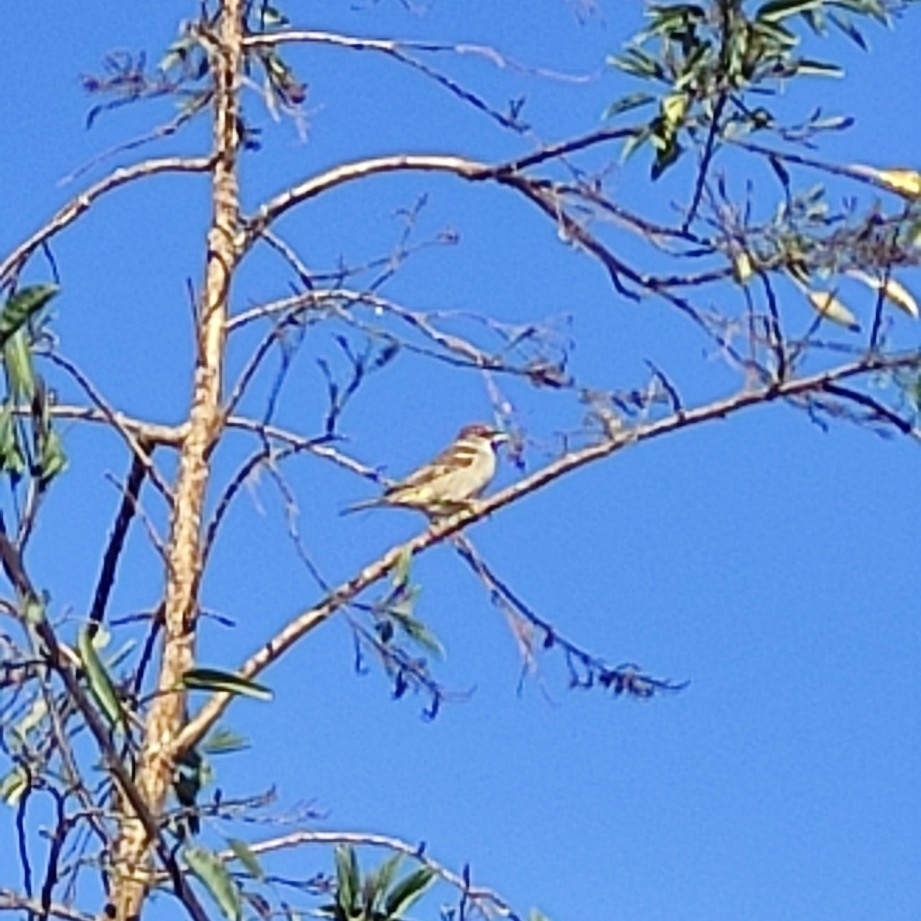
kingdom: Animalia
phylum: Chordata
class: Aves
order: Passeriformes
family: Passeridae
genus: Passer
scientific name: Passer domesticus
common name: House sparrow
